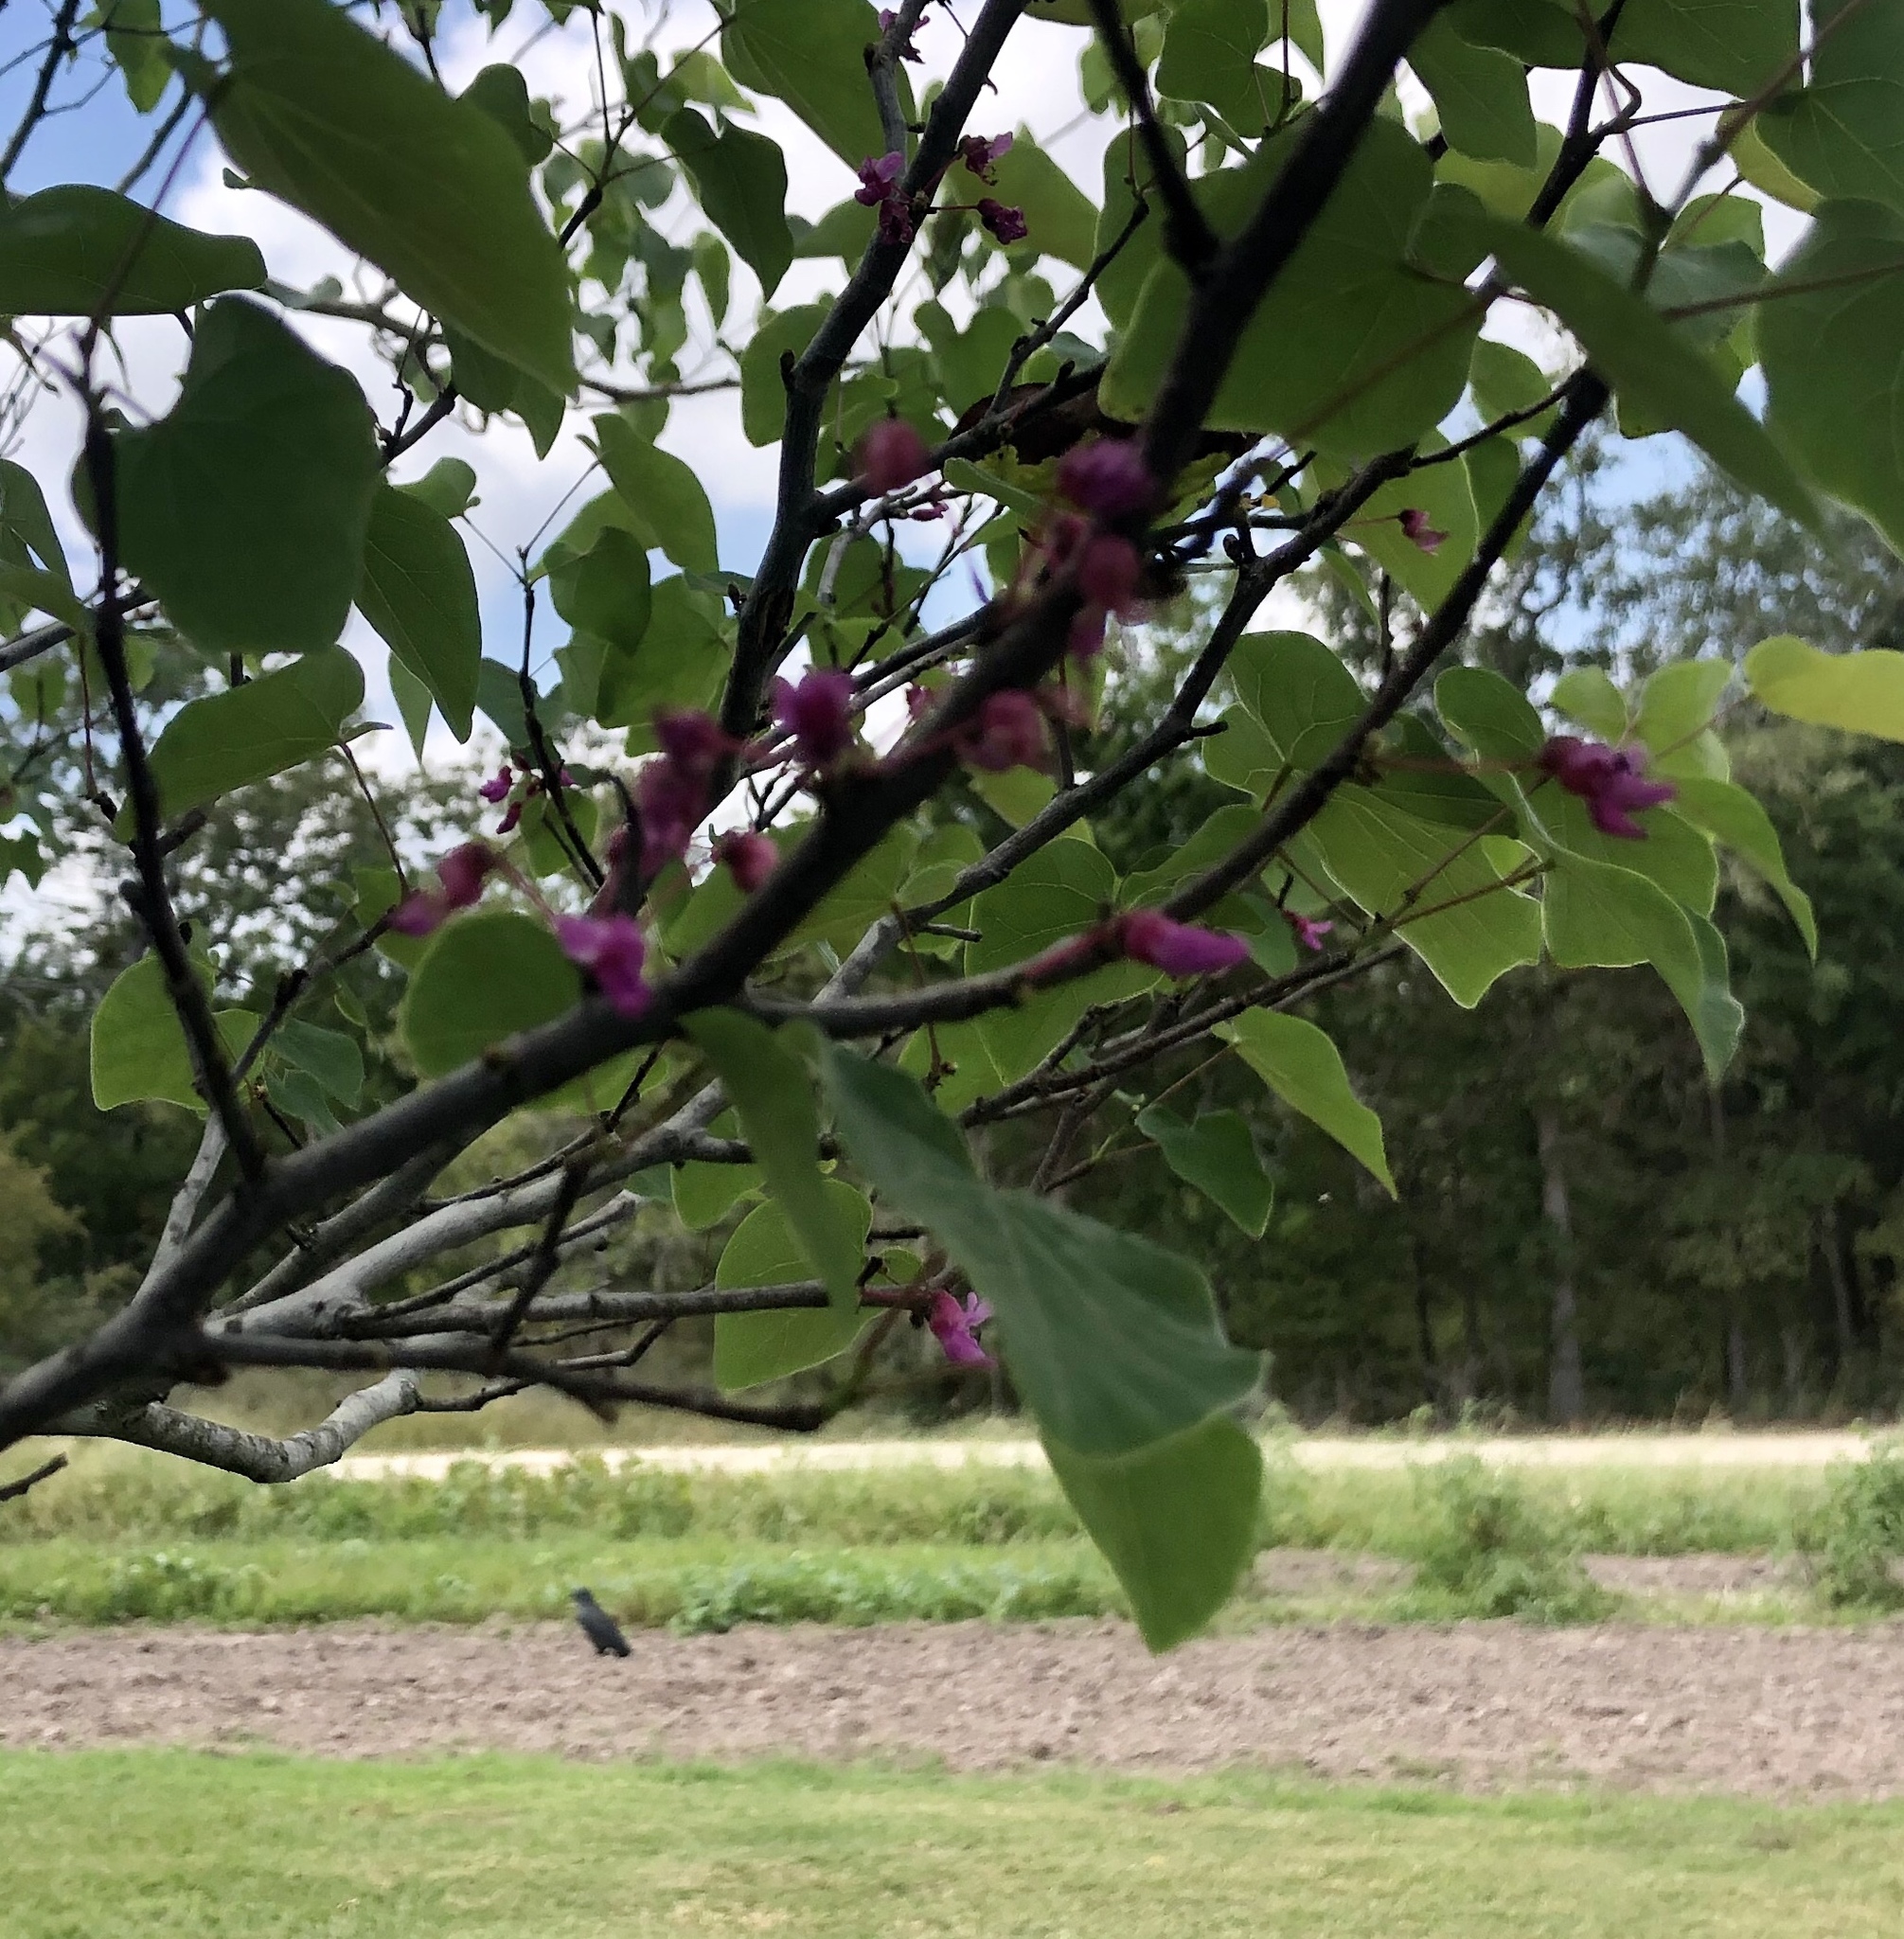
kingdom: Plantae
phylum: Tracheophyta
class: Magnoliopsida
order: Fabales
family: Fabaceae
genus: Cercis
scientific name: Cercis canadensis
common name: Eastern redbud
